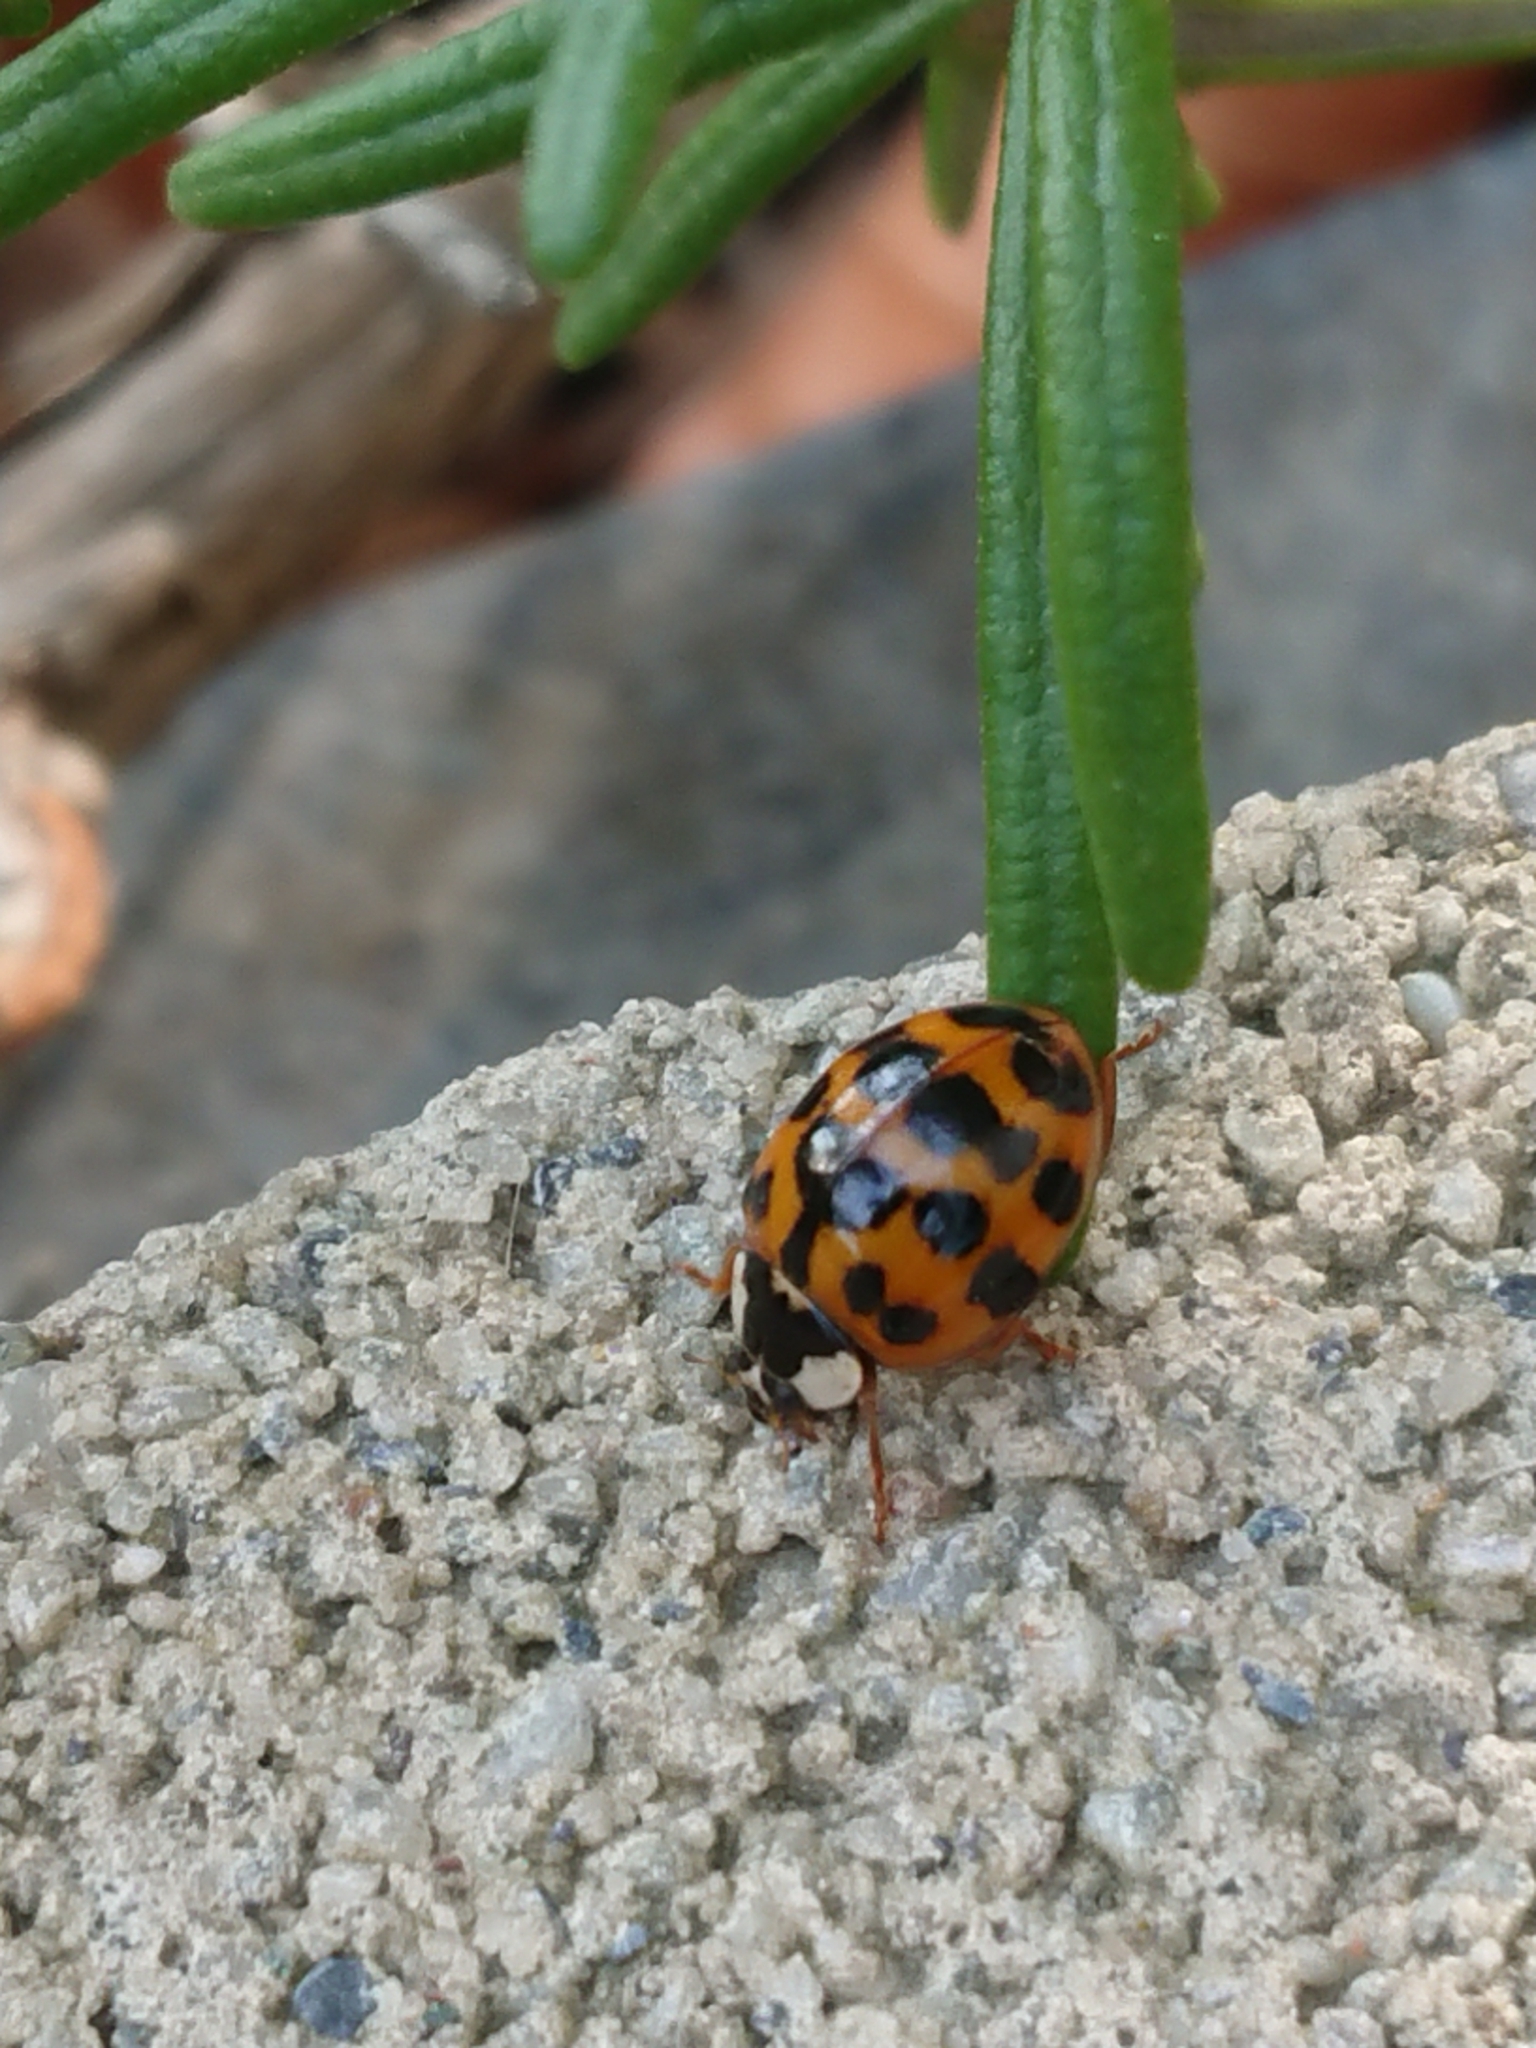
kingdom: Animalia
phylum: Arthropoda
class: Insecta
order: Coleoptera
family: Coccinellidae
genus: Harmonia
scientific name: Harmonia axyridis
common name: Harlequin ladybird
